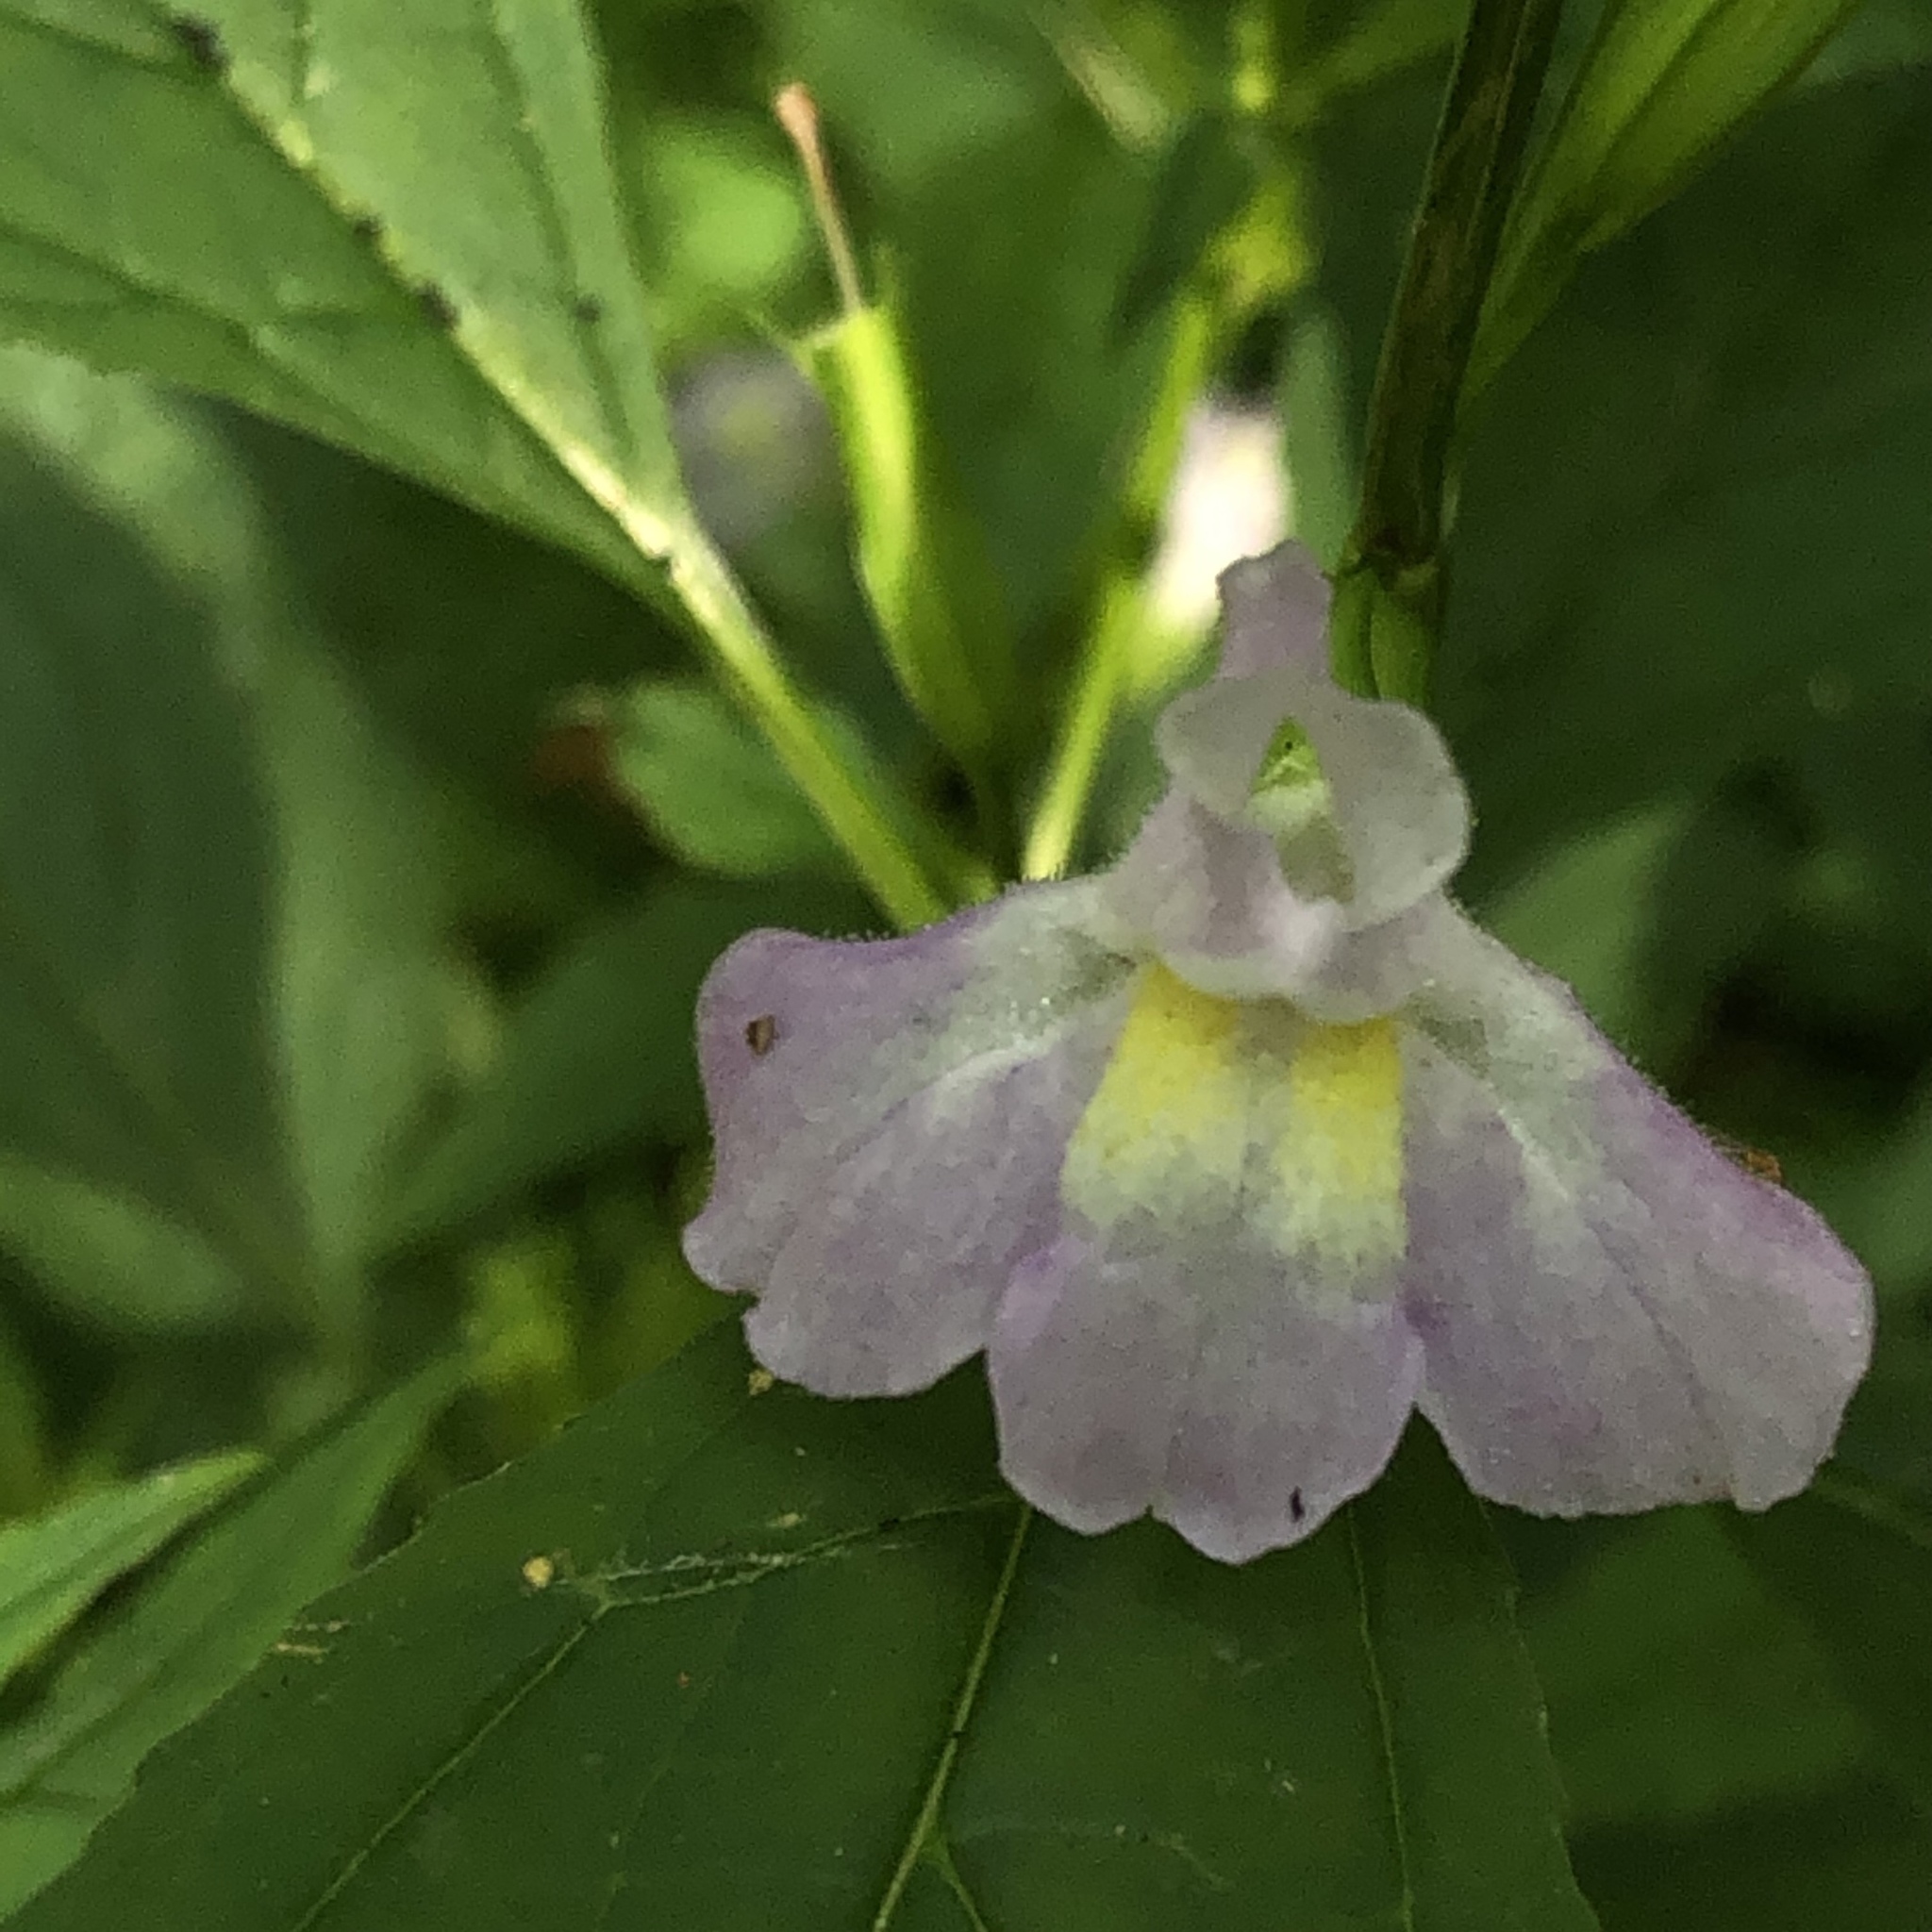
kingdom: Plantae
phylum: Tracheophyta
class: Magnoliopsida
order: Lamiales
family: Phrymaceae
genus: Mimulus
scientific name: Mimulus alatus
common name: Sharp-wing monkey-flower
